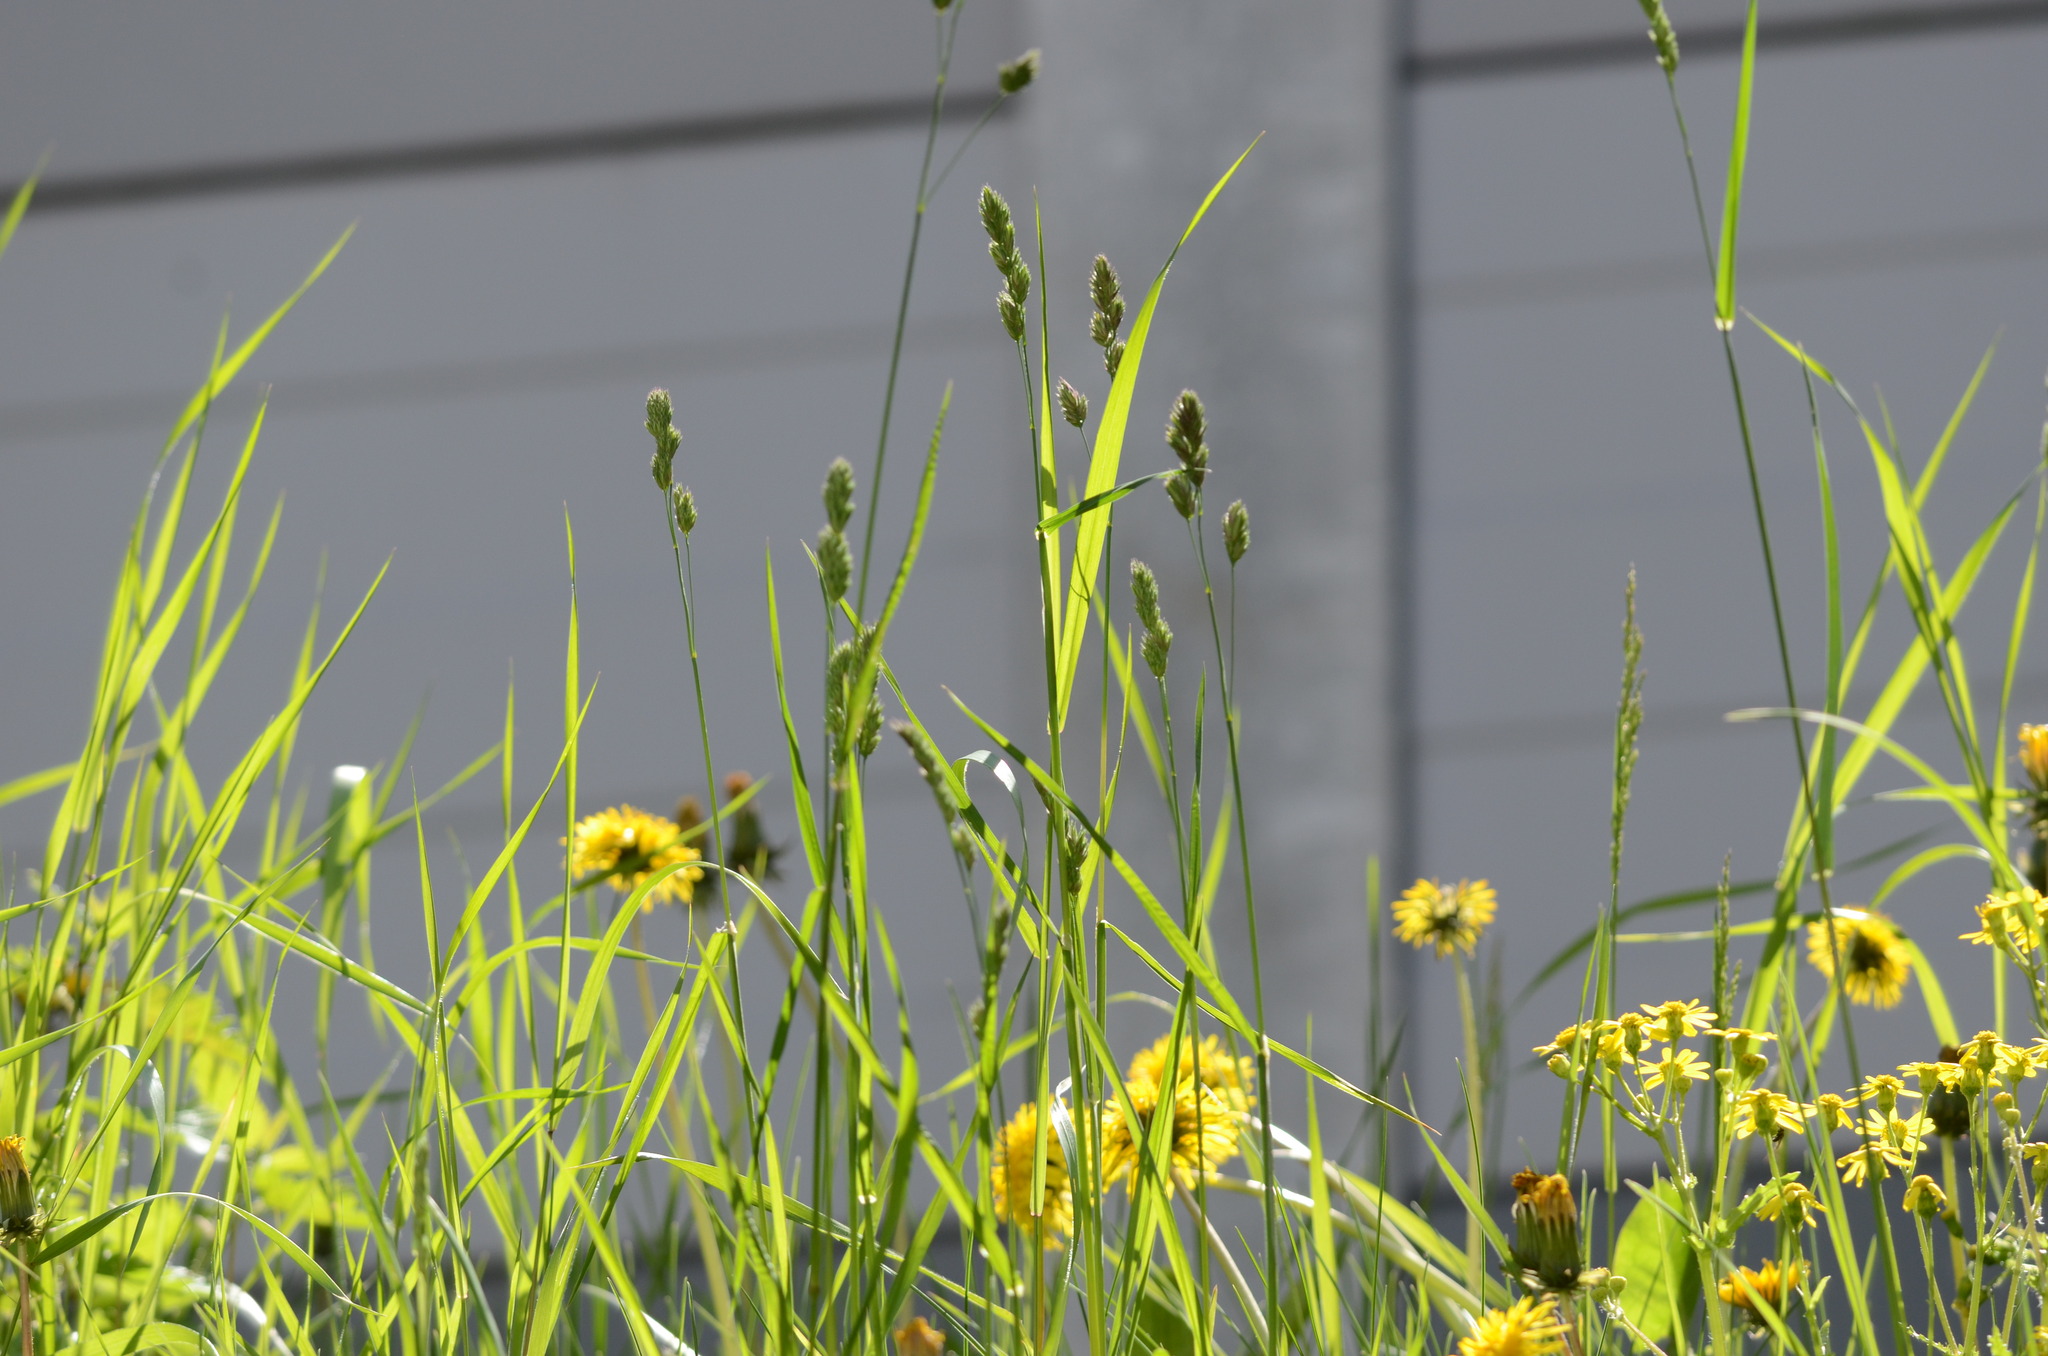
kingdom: Plantae
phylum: Tracheophyta
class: Liliopsida
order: Poales
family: Poaceae
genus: Dactylis
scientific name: Dactylis glomerata
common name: Orchardgrass
